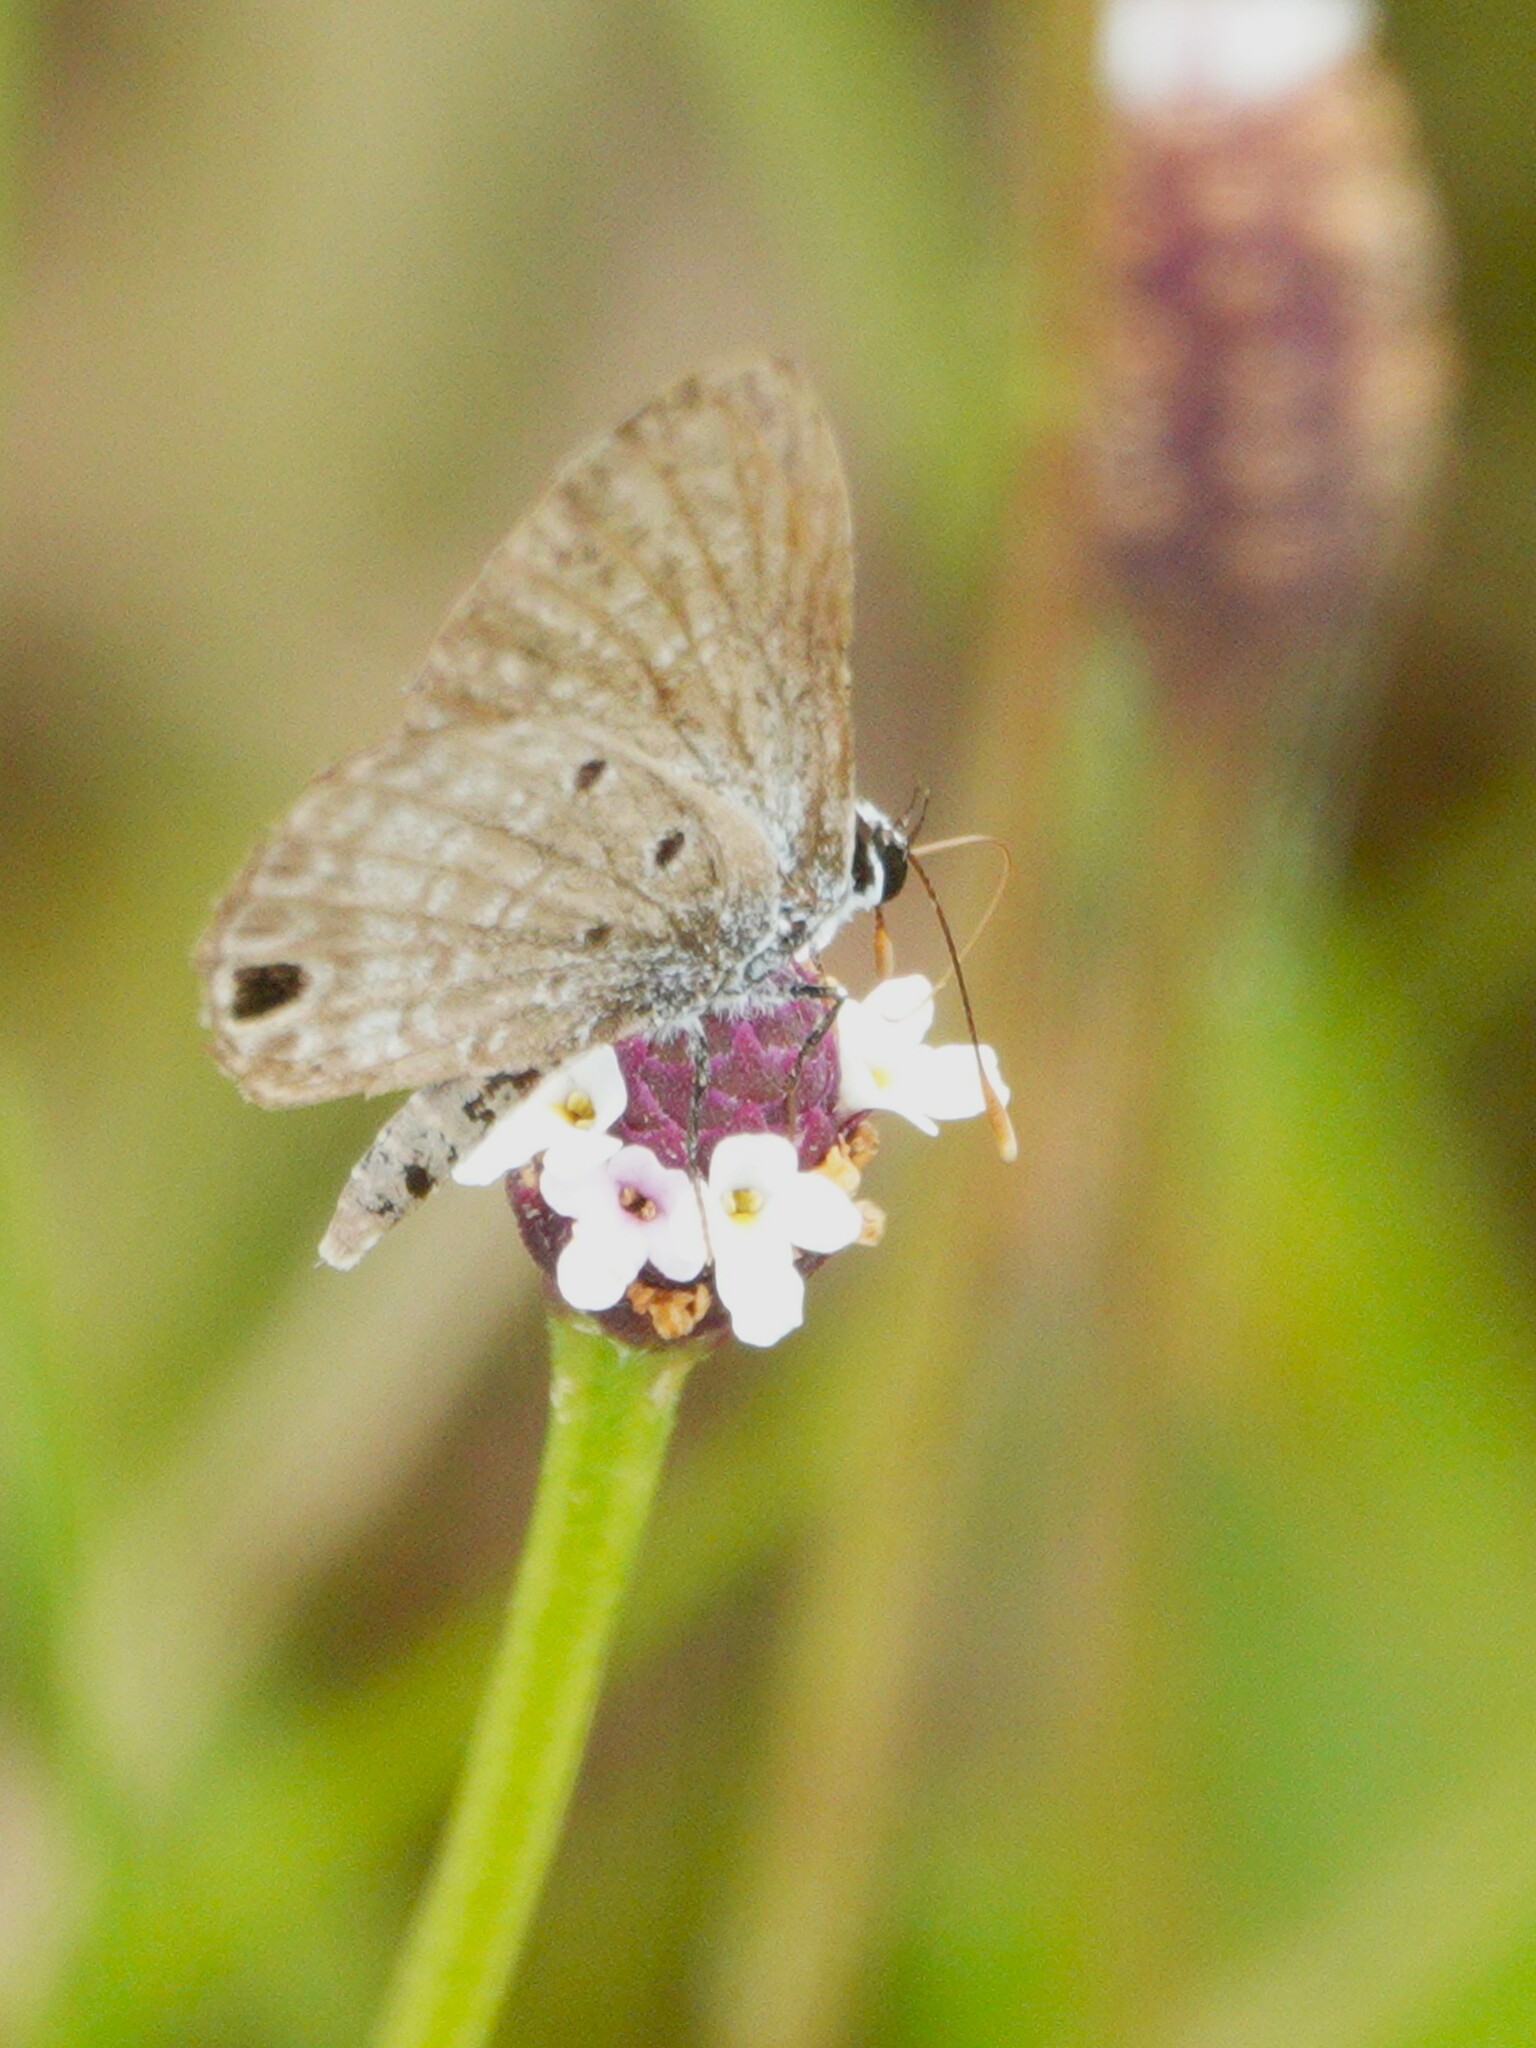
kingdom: Animalia
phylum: Arthropoda
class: Insecta
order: Lepidoptera
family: Lycaenidae
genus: Hemiargus
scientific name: Hemiargus ceraunus
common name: Ceraunus blue
